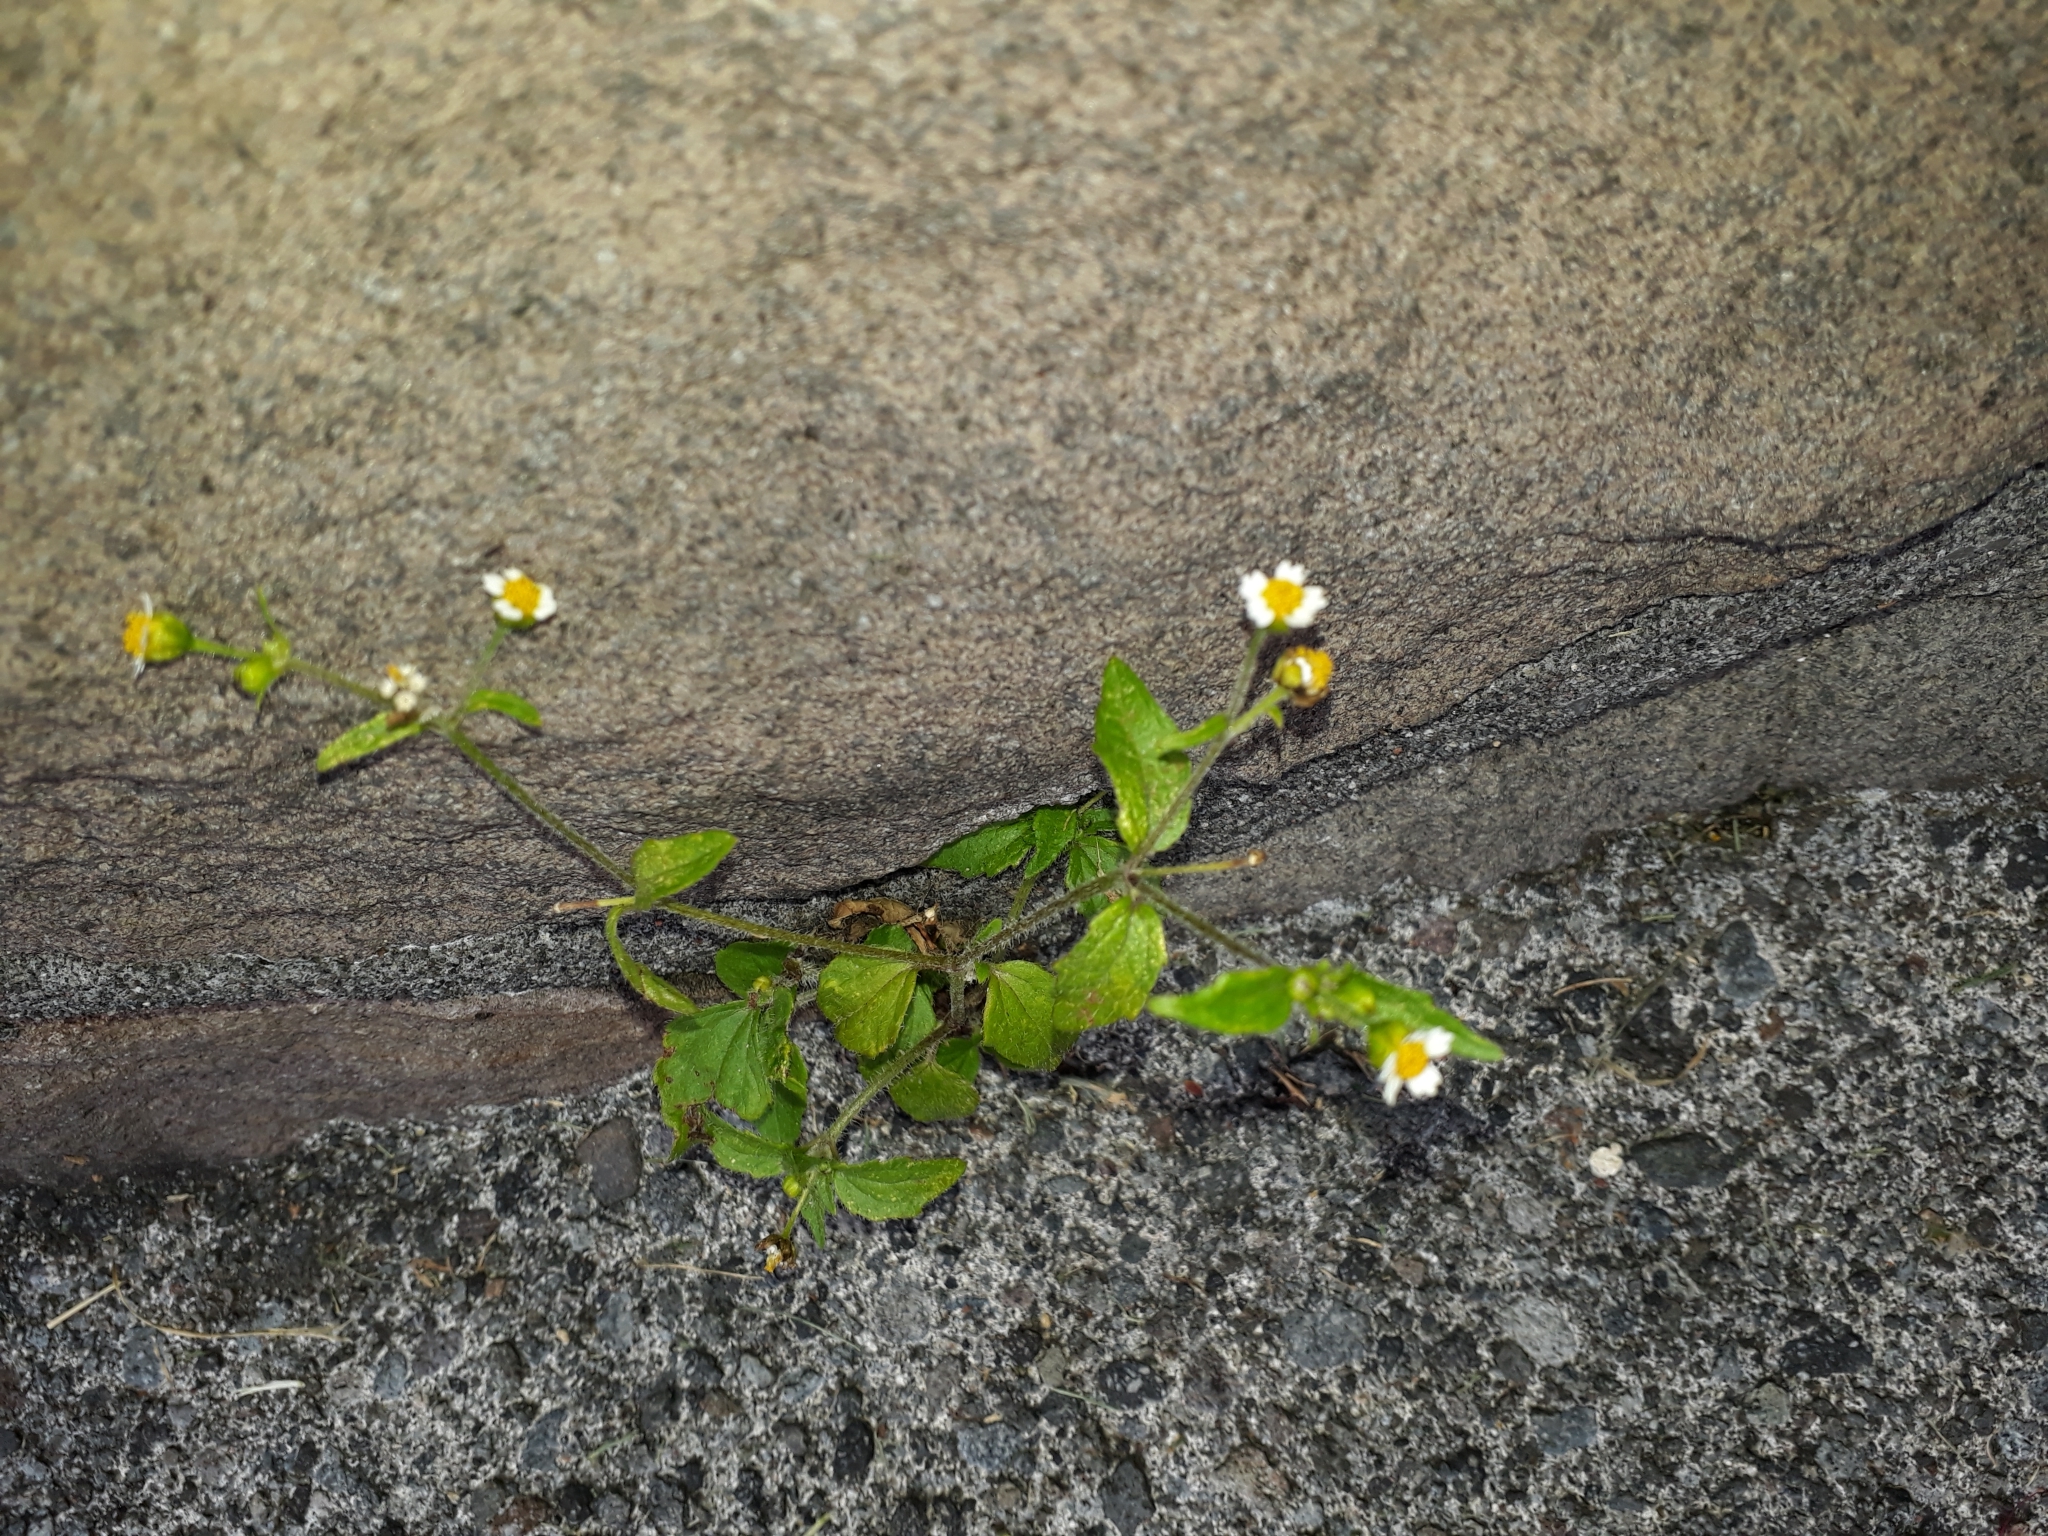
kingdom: Plantae
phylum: Tracheophyta
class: Magnoliopsida
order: Asterales
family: Asteraceae
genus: Galinsoga
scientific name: Galinsoga quadriradiata
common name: Shaggy soldier
